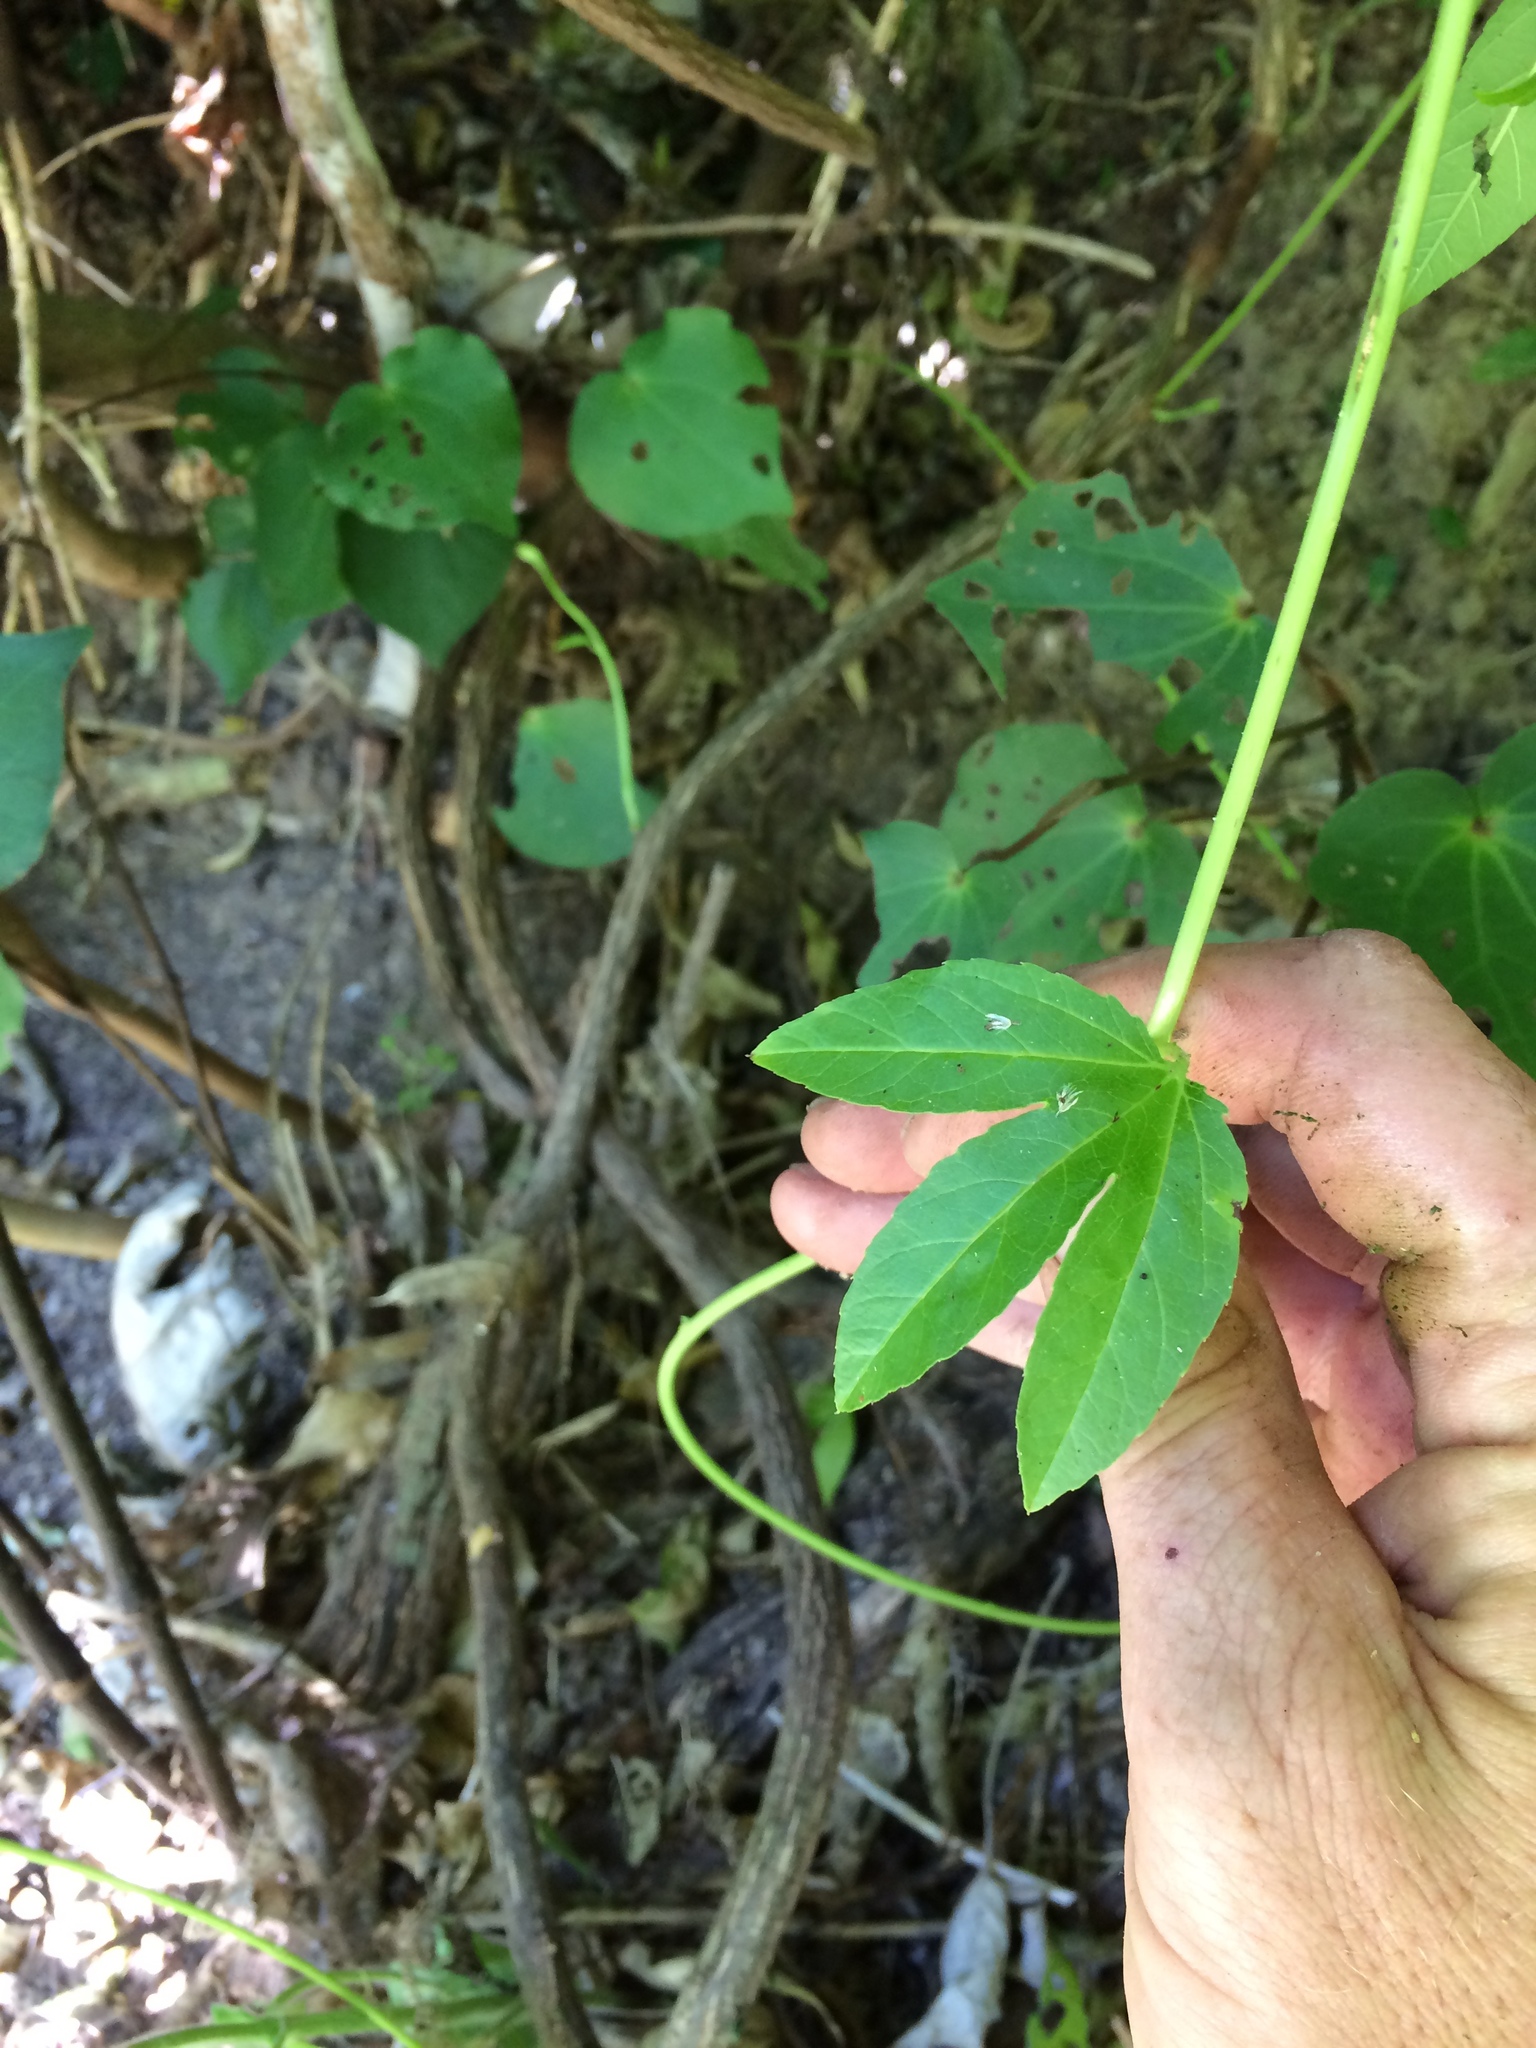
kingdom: Plantae
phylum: Tracheophyta
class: Magnoliopsida
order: Malpighiales
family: Passifloraceae
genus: Passiflora
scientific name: Passiflora tripartita
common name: Banana poka
